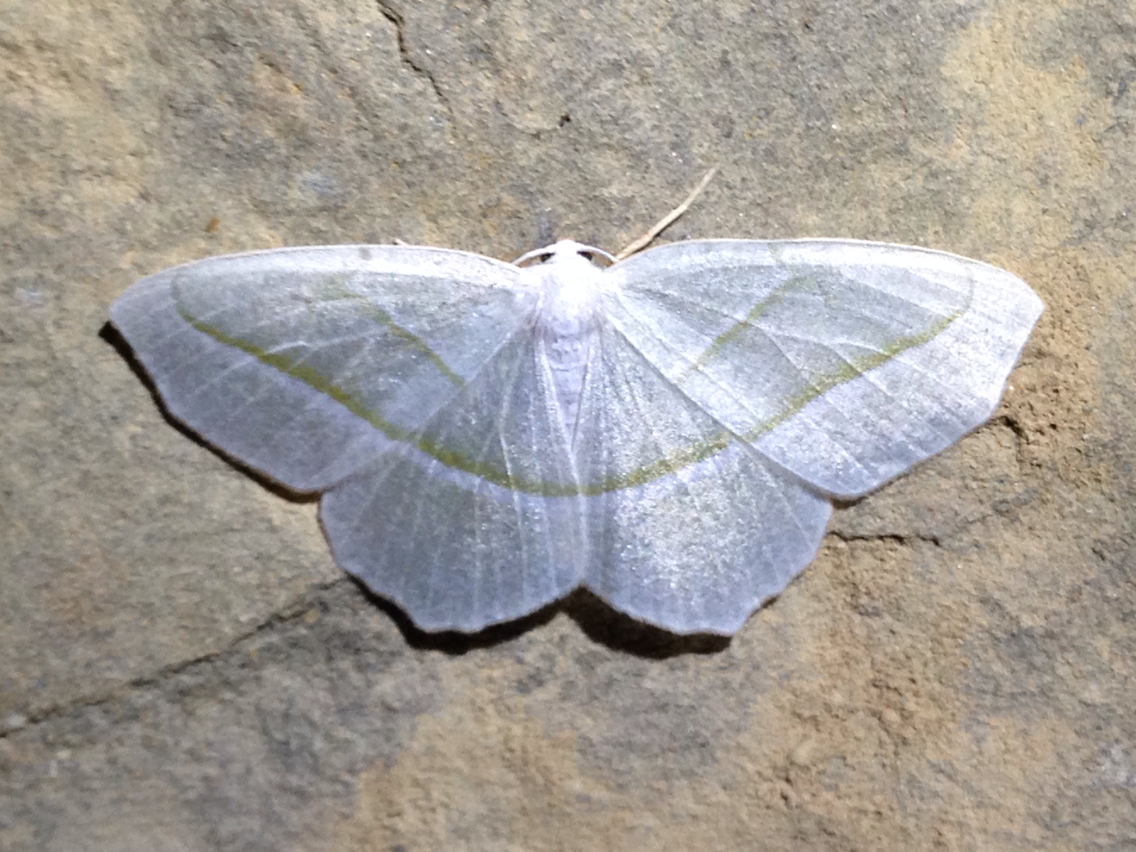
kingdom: Animalia
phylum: Arthropoda
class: Insecta
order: Lepidoptera
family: Geometridae
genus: Campaea
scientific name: Campaea perlata
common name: Fringed looper
